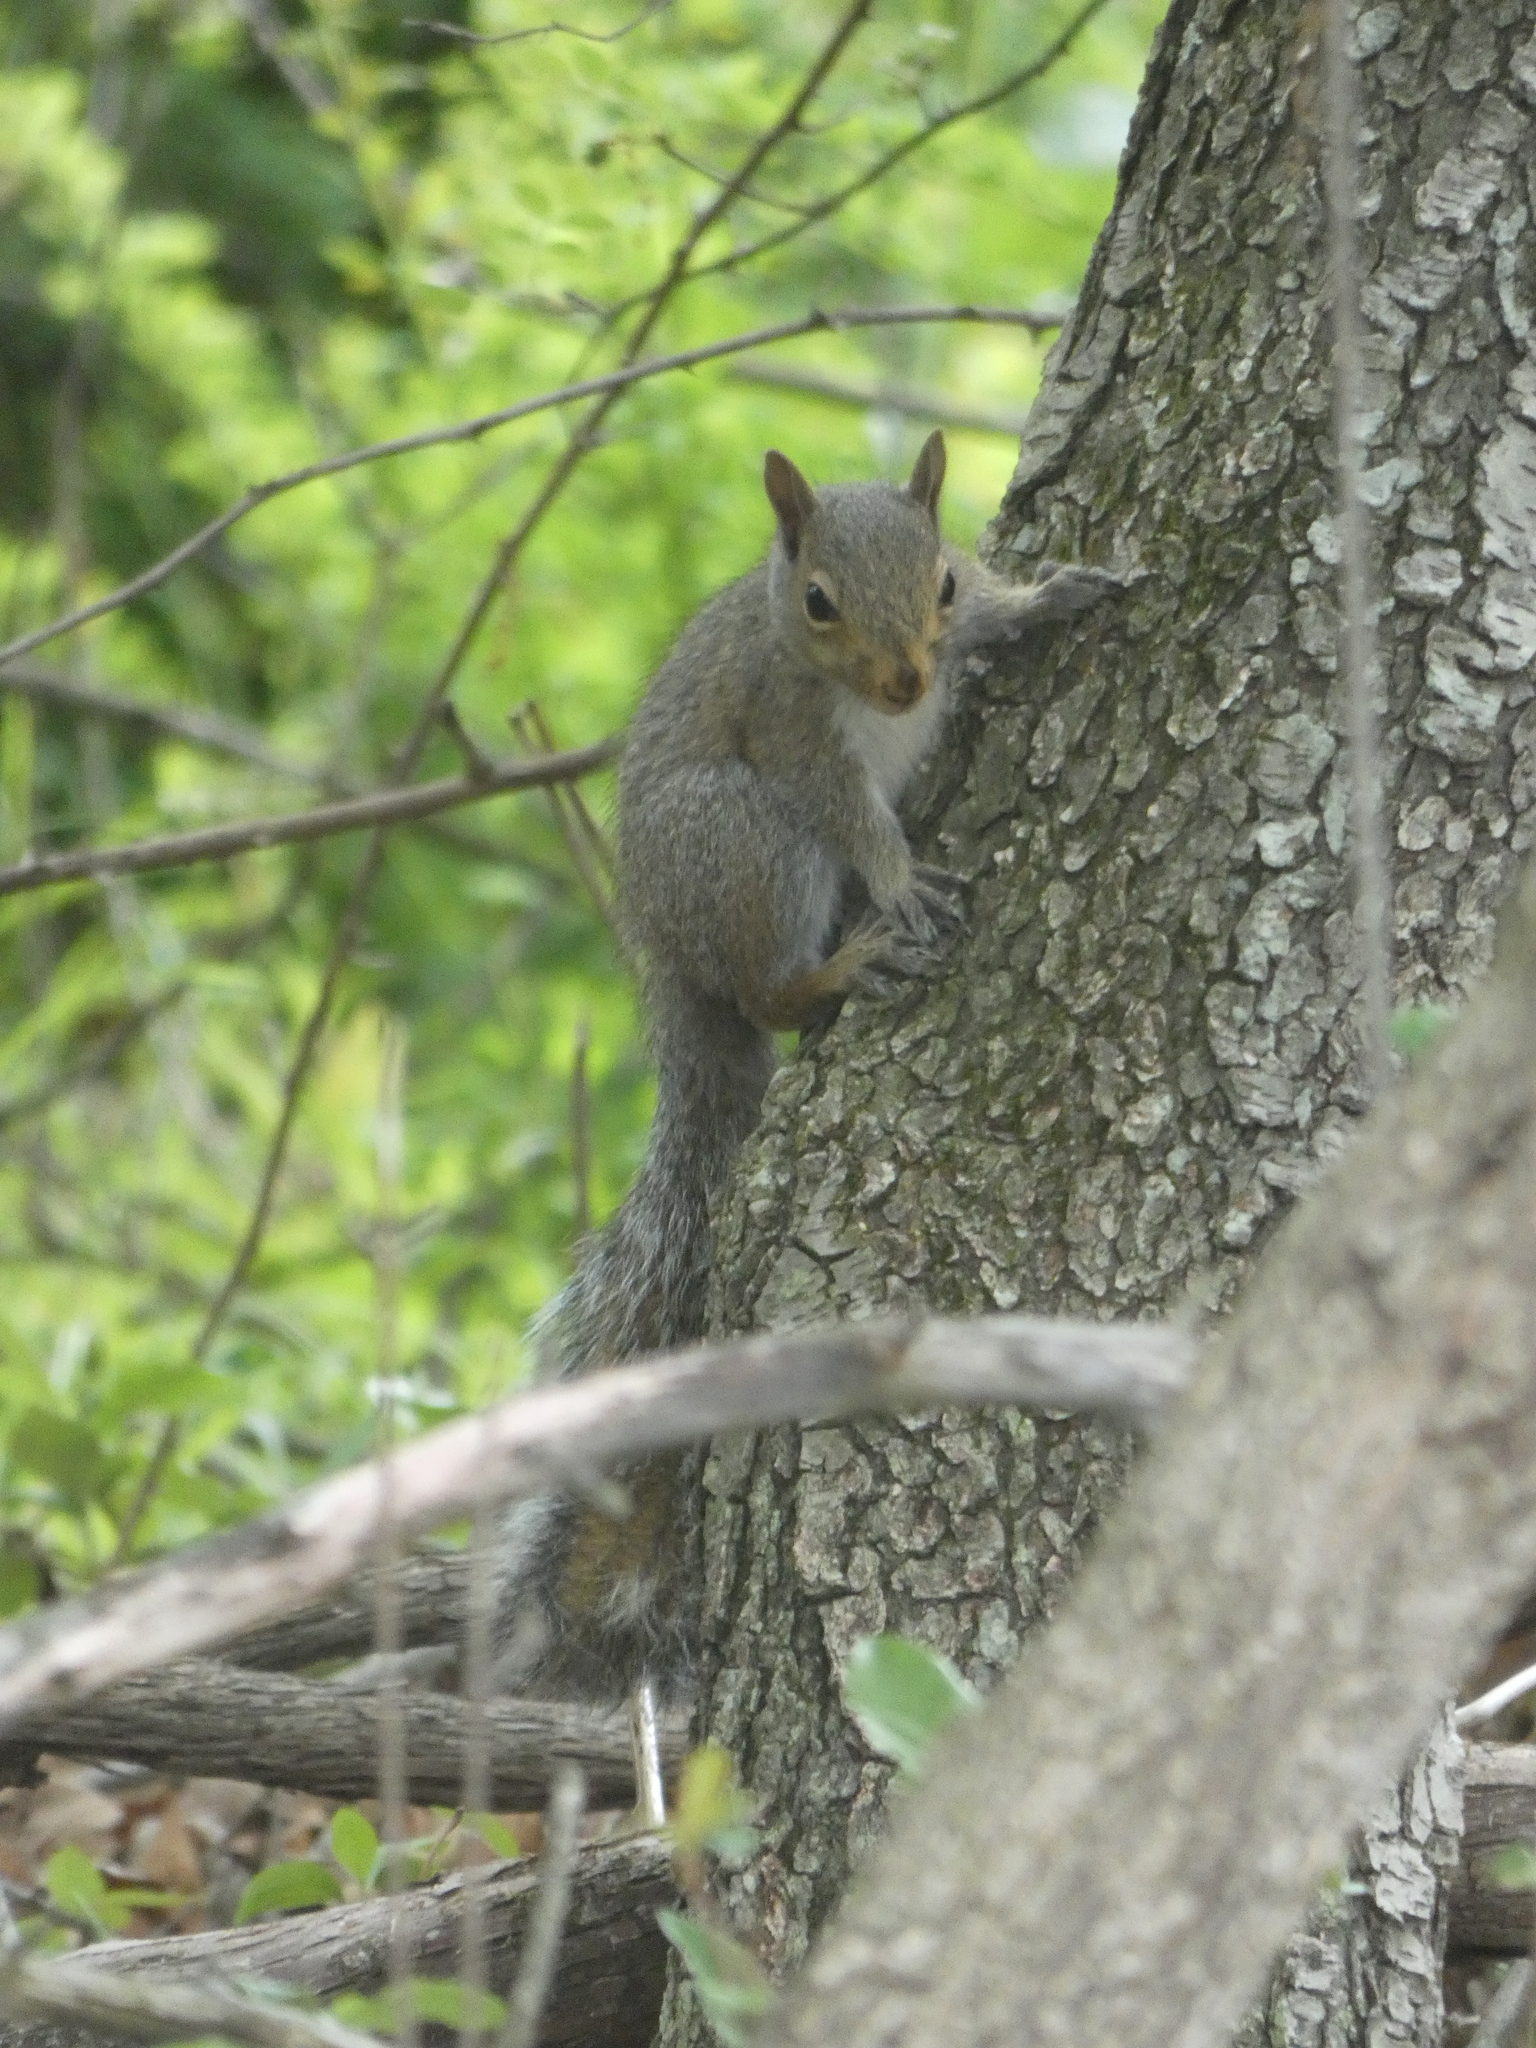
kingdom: Animalia
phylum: Chordata
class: Mammalia
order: Rodentia
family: Sciuridae
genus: Sciurus
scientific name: Sciurus carolinensis
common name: Eastern gray squirrel
